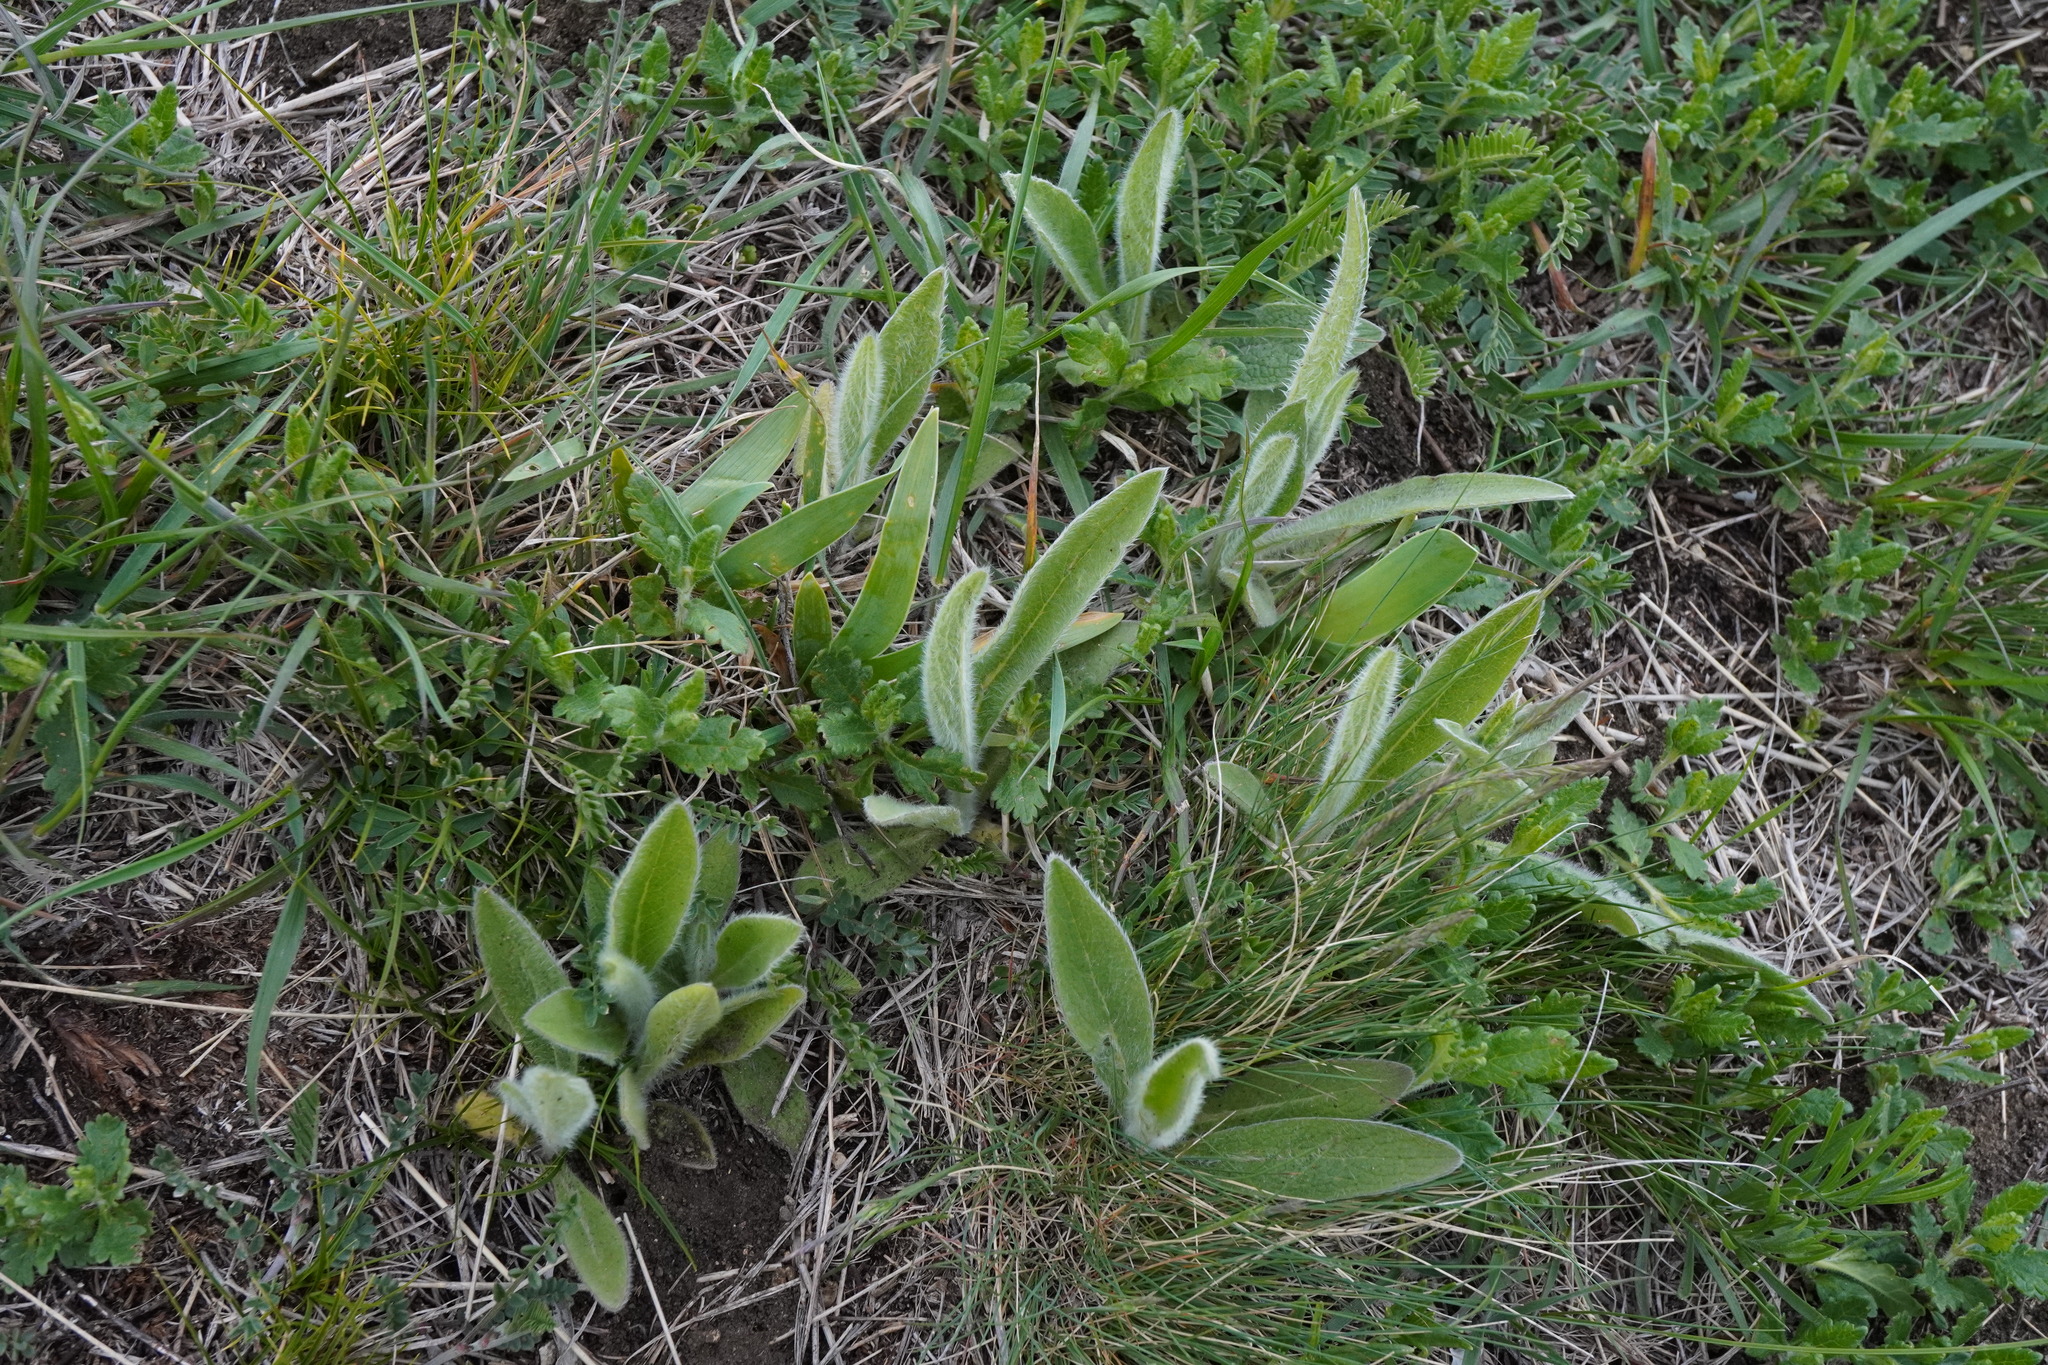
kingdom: Plantae
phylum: Tracheophyta
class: Magnoliopsida
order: Asterales
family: Asteraceae
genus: Pentanema
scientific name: Pentanema oculus-christi
